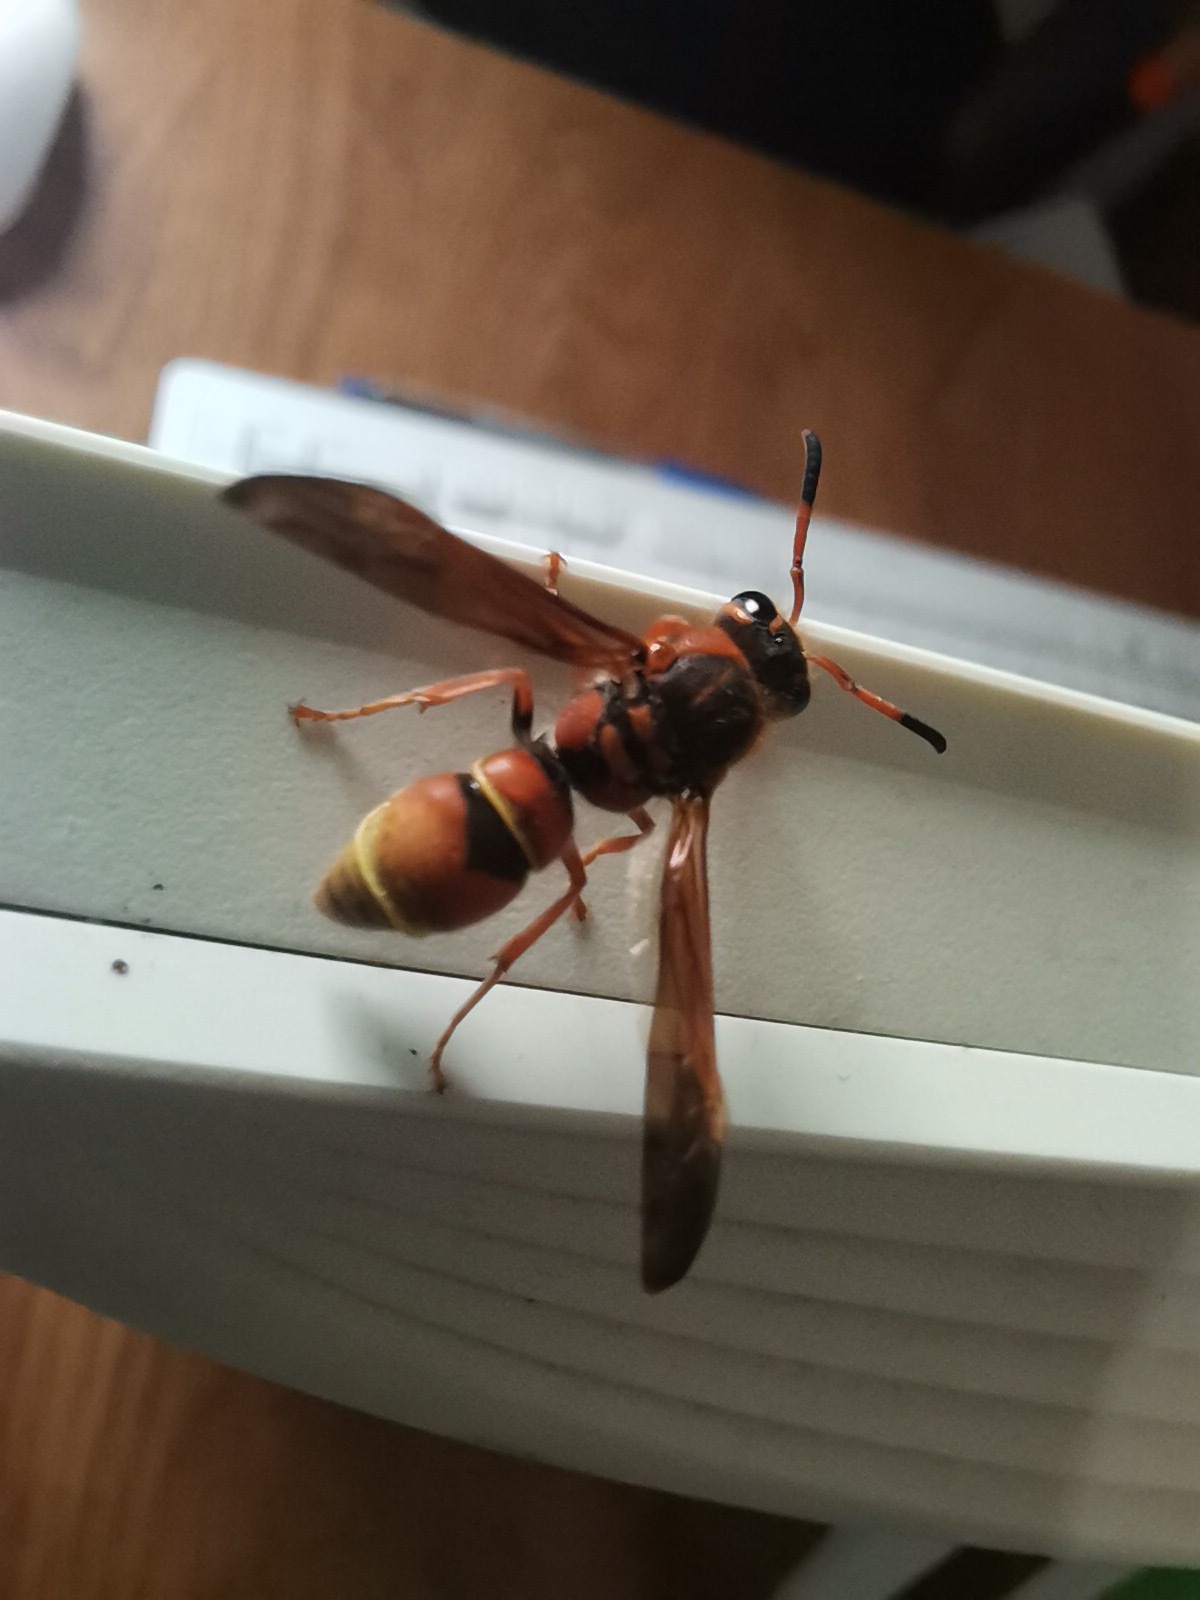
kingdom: Animalia
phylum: Arthropoda
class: Insecta
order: Hymenoptera
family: Vespidae
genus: Ancistrocerus
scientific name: Ancistrocerus tuberculocephalus
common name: Vespid wasp
